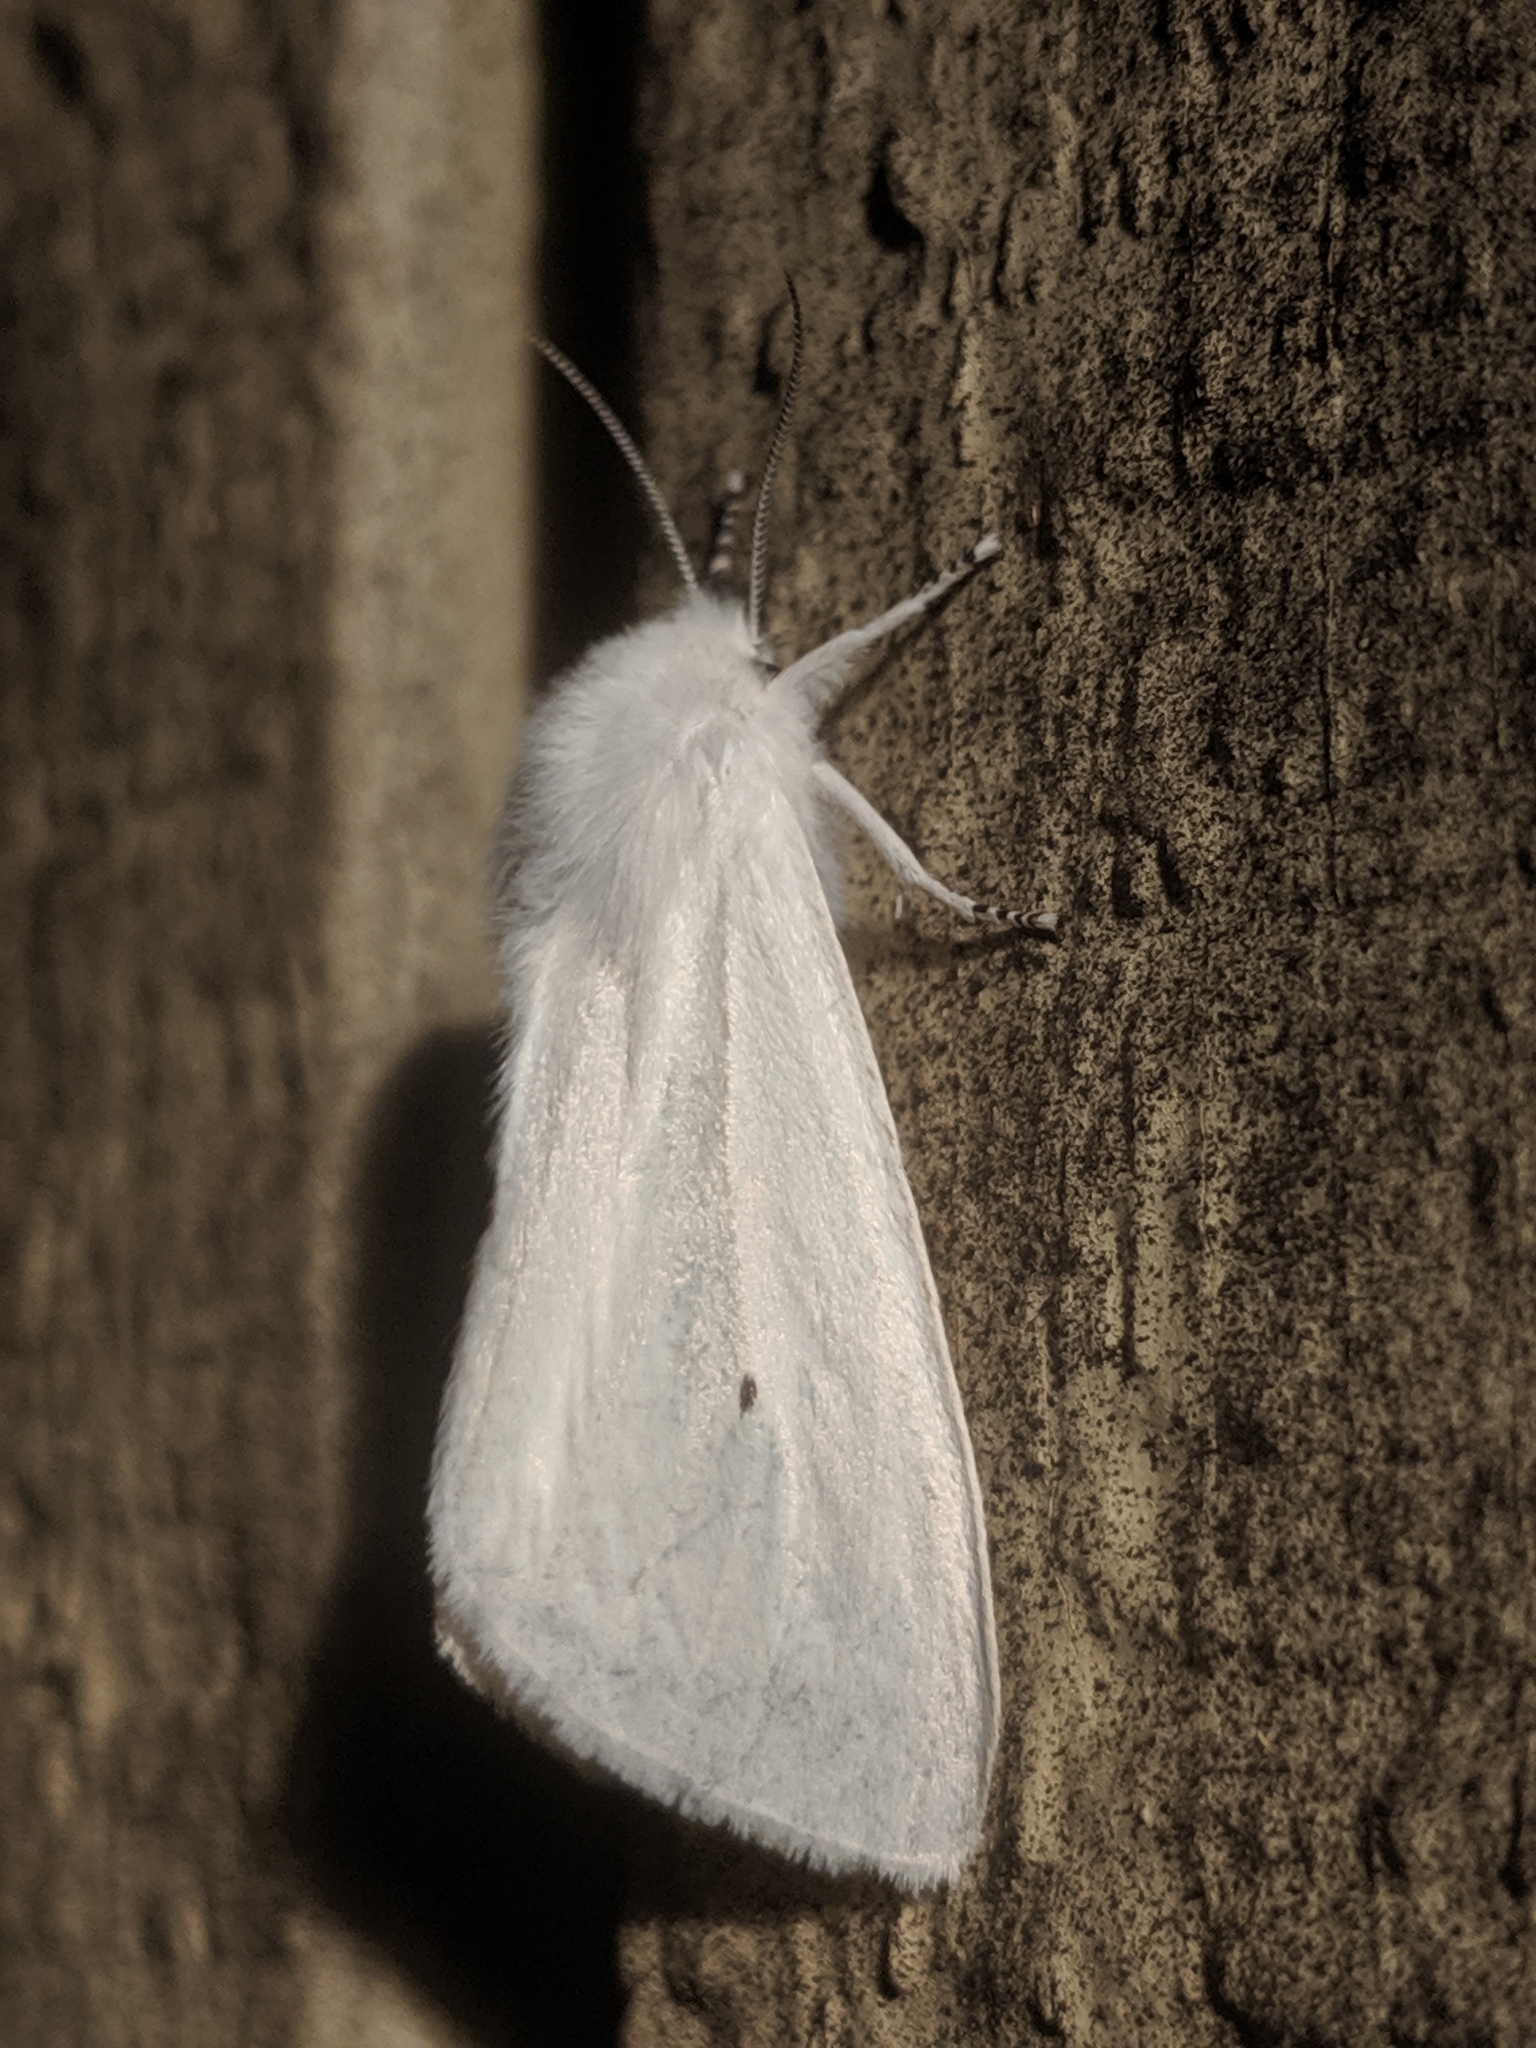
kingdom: Animalia
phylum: Arthropoda
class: Insecta
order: Lepidoptera
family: Erebidae
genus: Spilosoma
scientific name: Spilosoma virginica
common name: Virginia tiger moth
